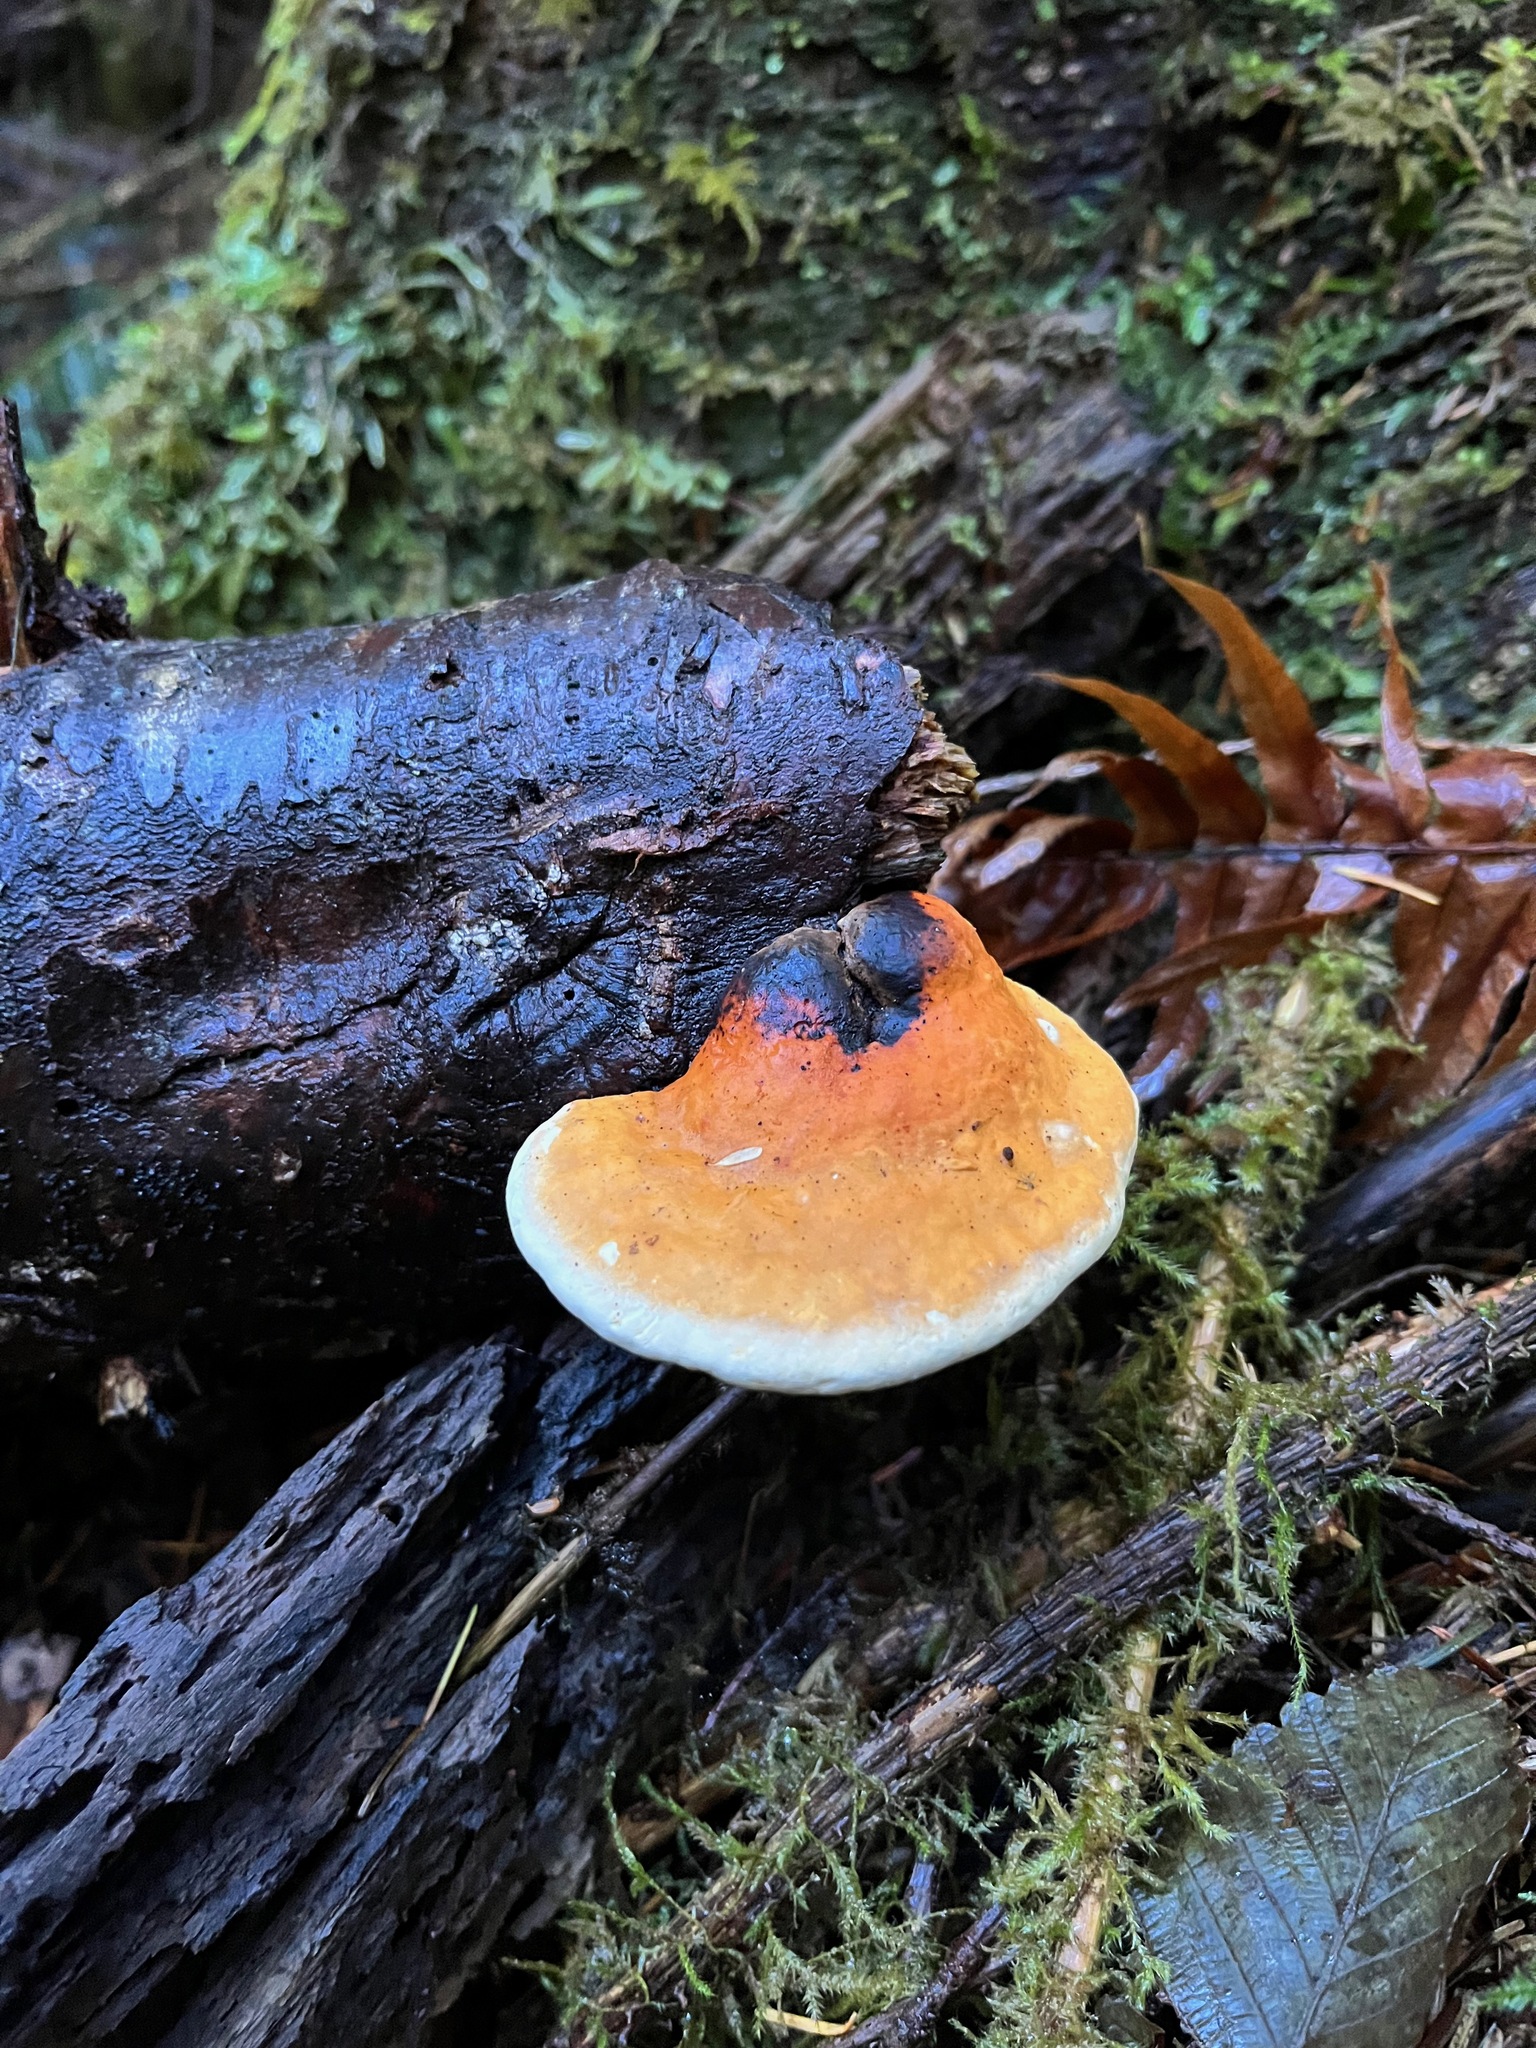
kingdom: Fungi
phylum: Basidiomycota
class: Agaricomycetes
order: Polyporales
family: Fomitopsidaceae
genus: Fomitopsis
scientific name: Fomitopsis mounceae
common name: Northern red belt
